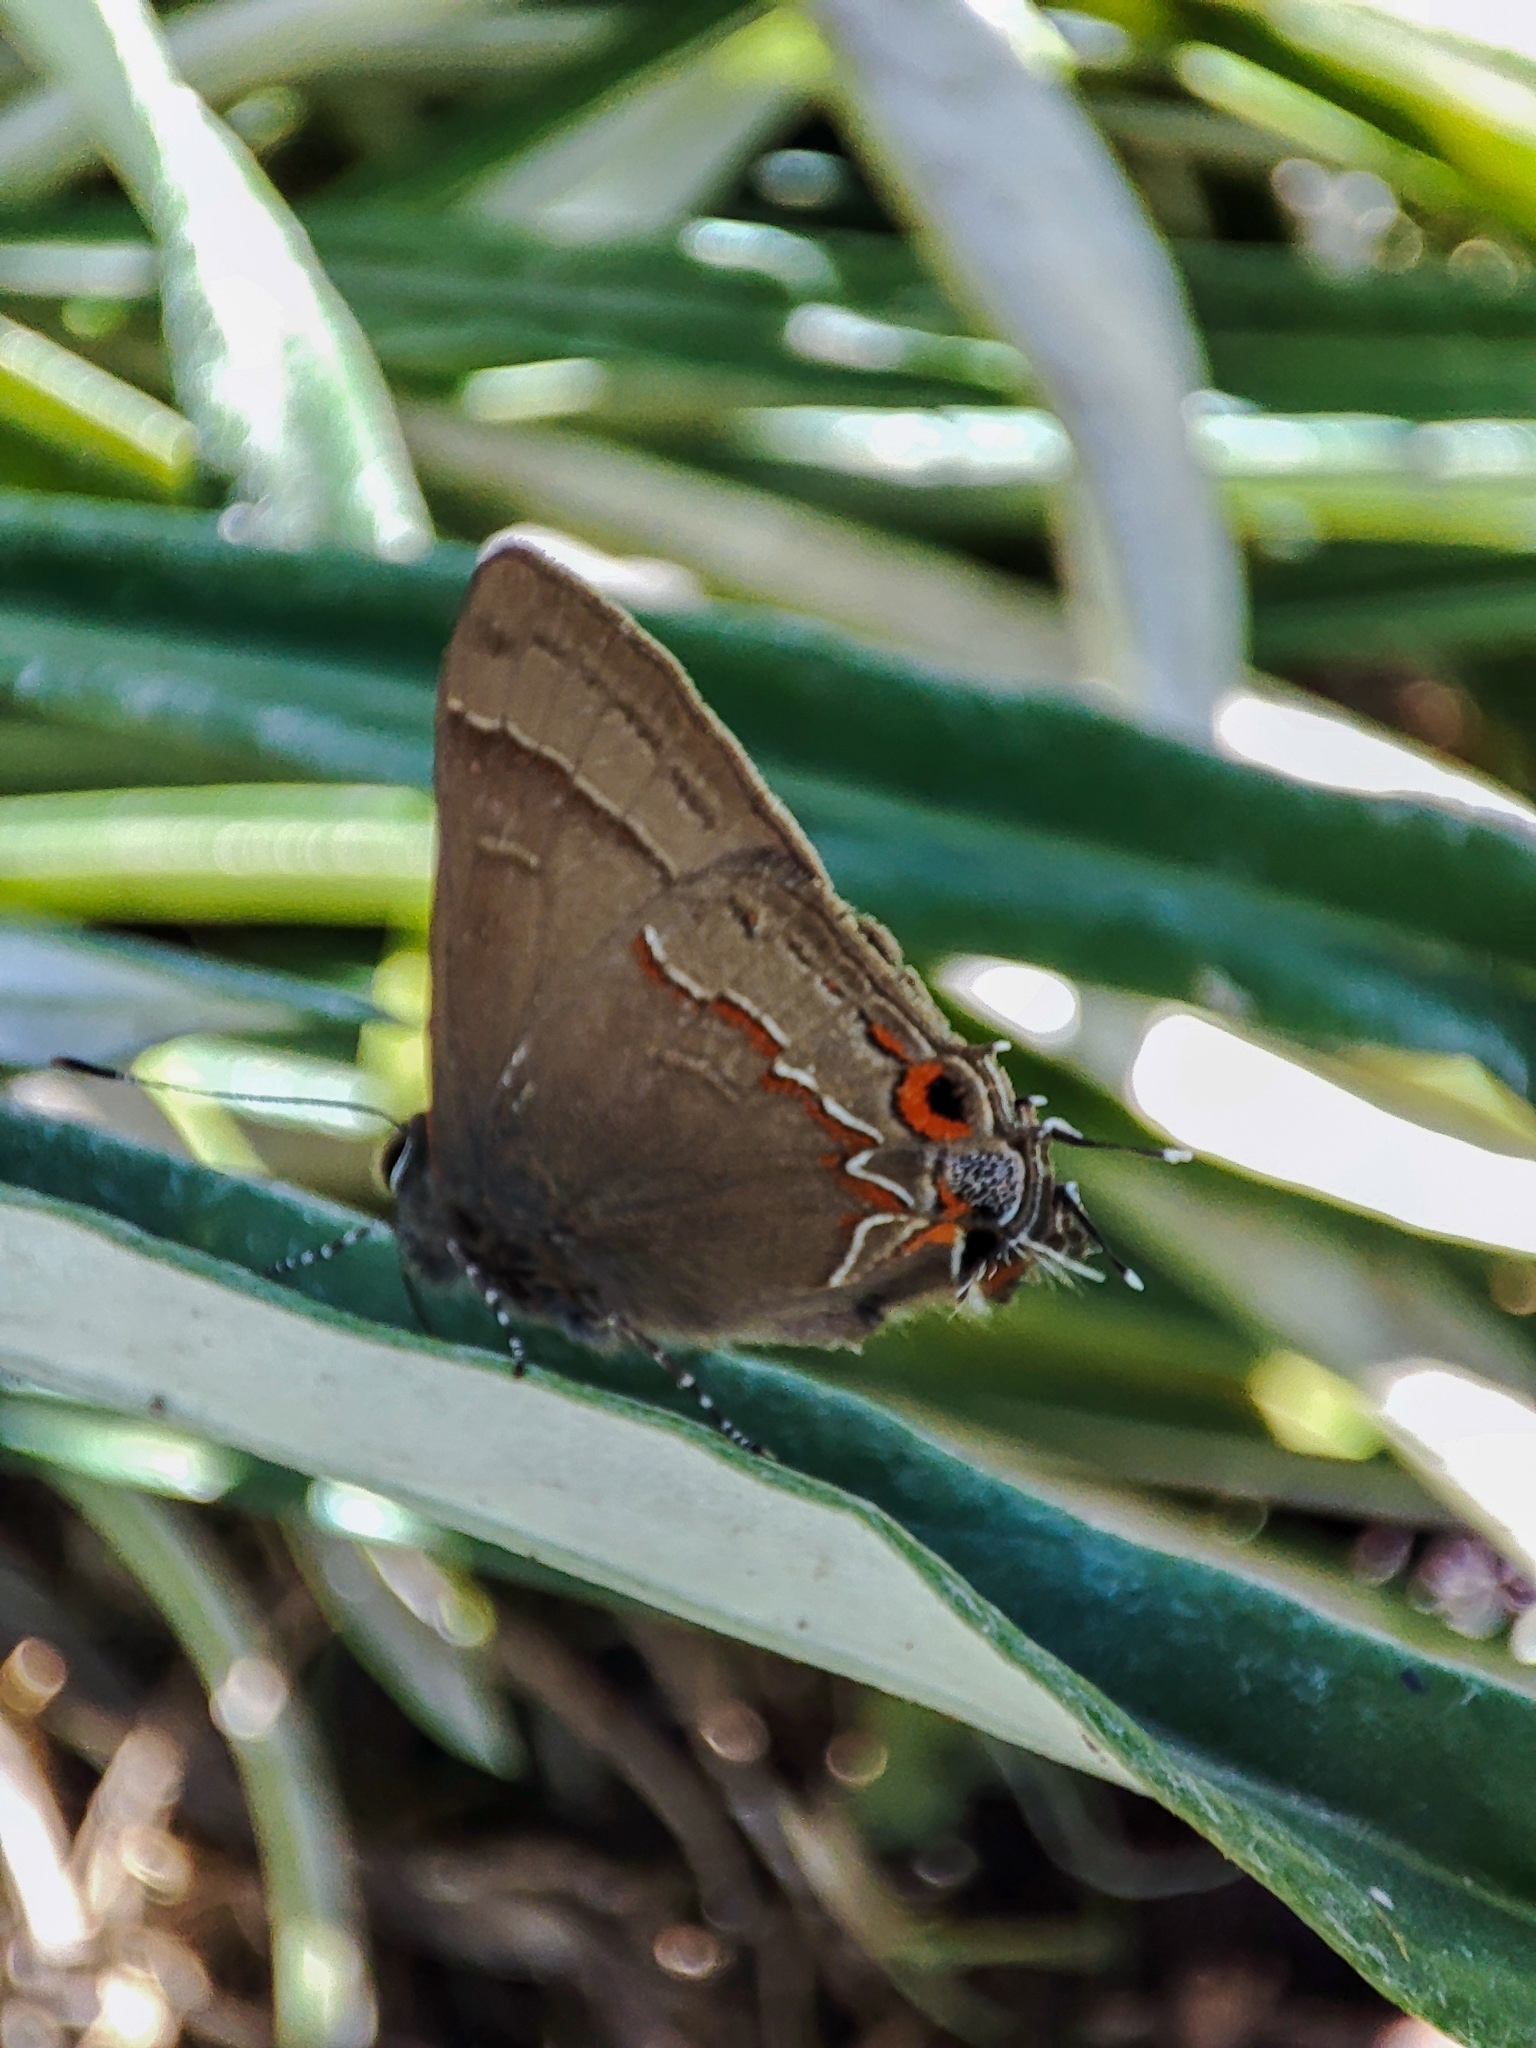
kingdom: Animalia
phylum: Arthropoda
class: Insecta
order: Lepidoptera
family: Lycaenidae
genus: Electrostrymon
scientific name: Electrostrymon
